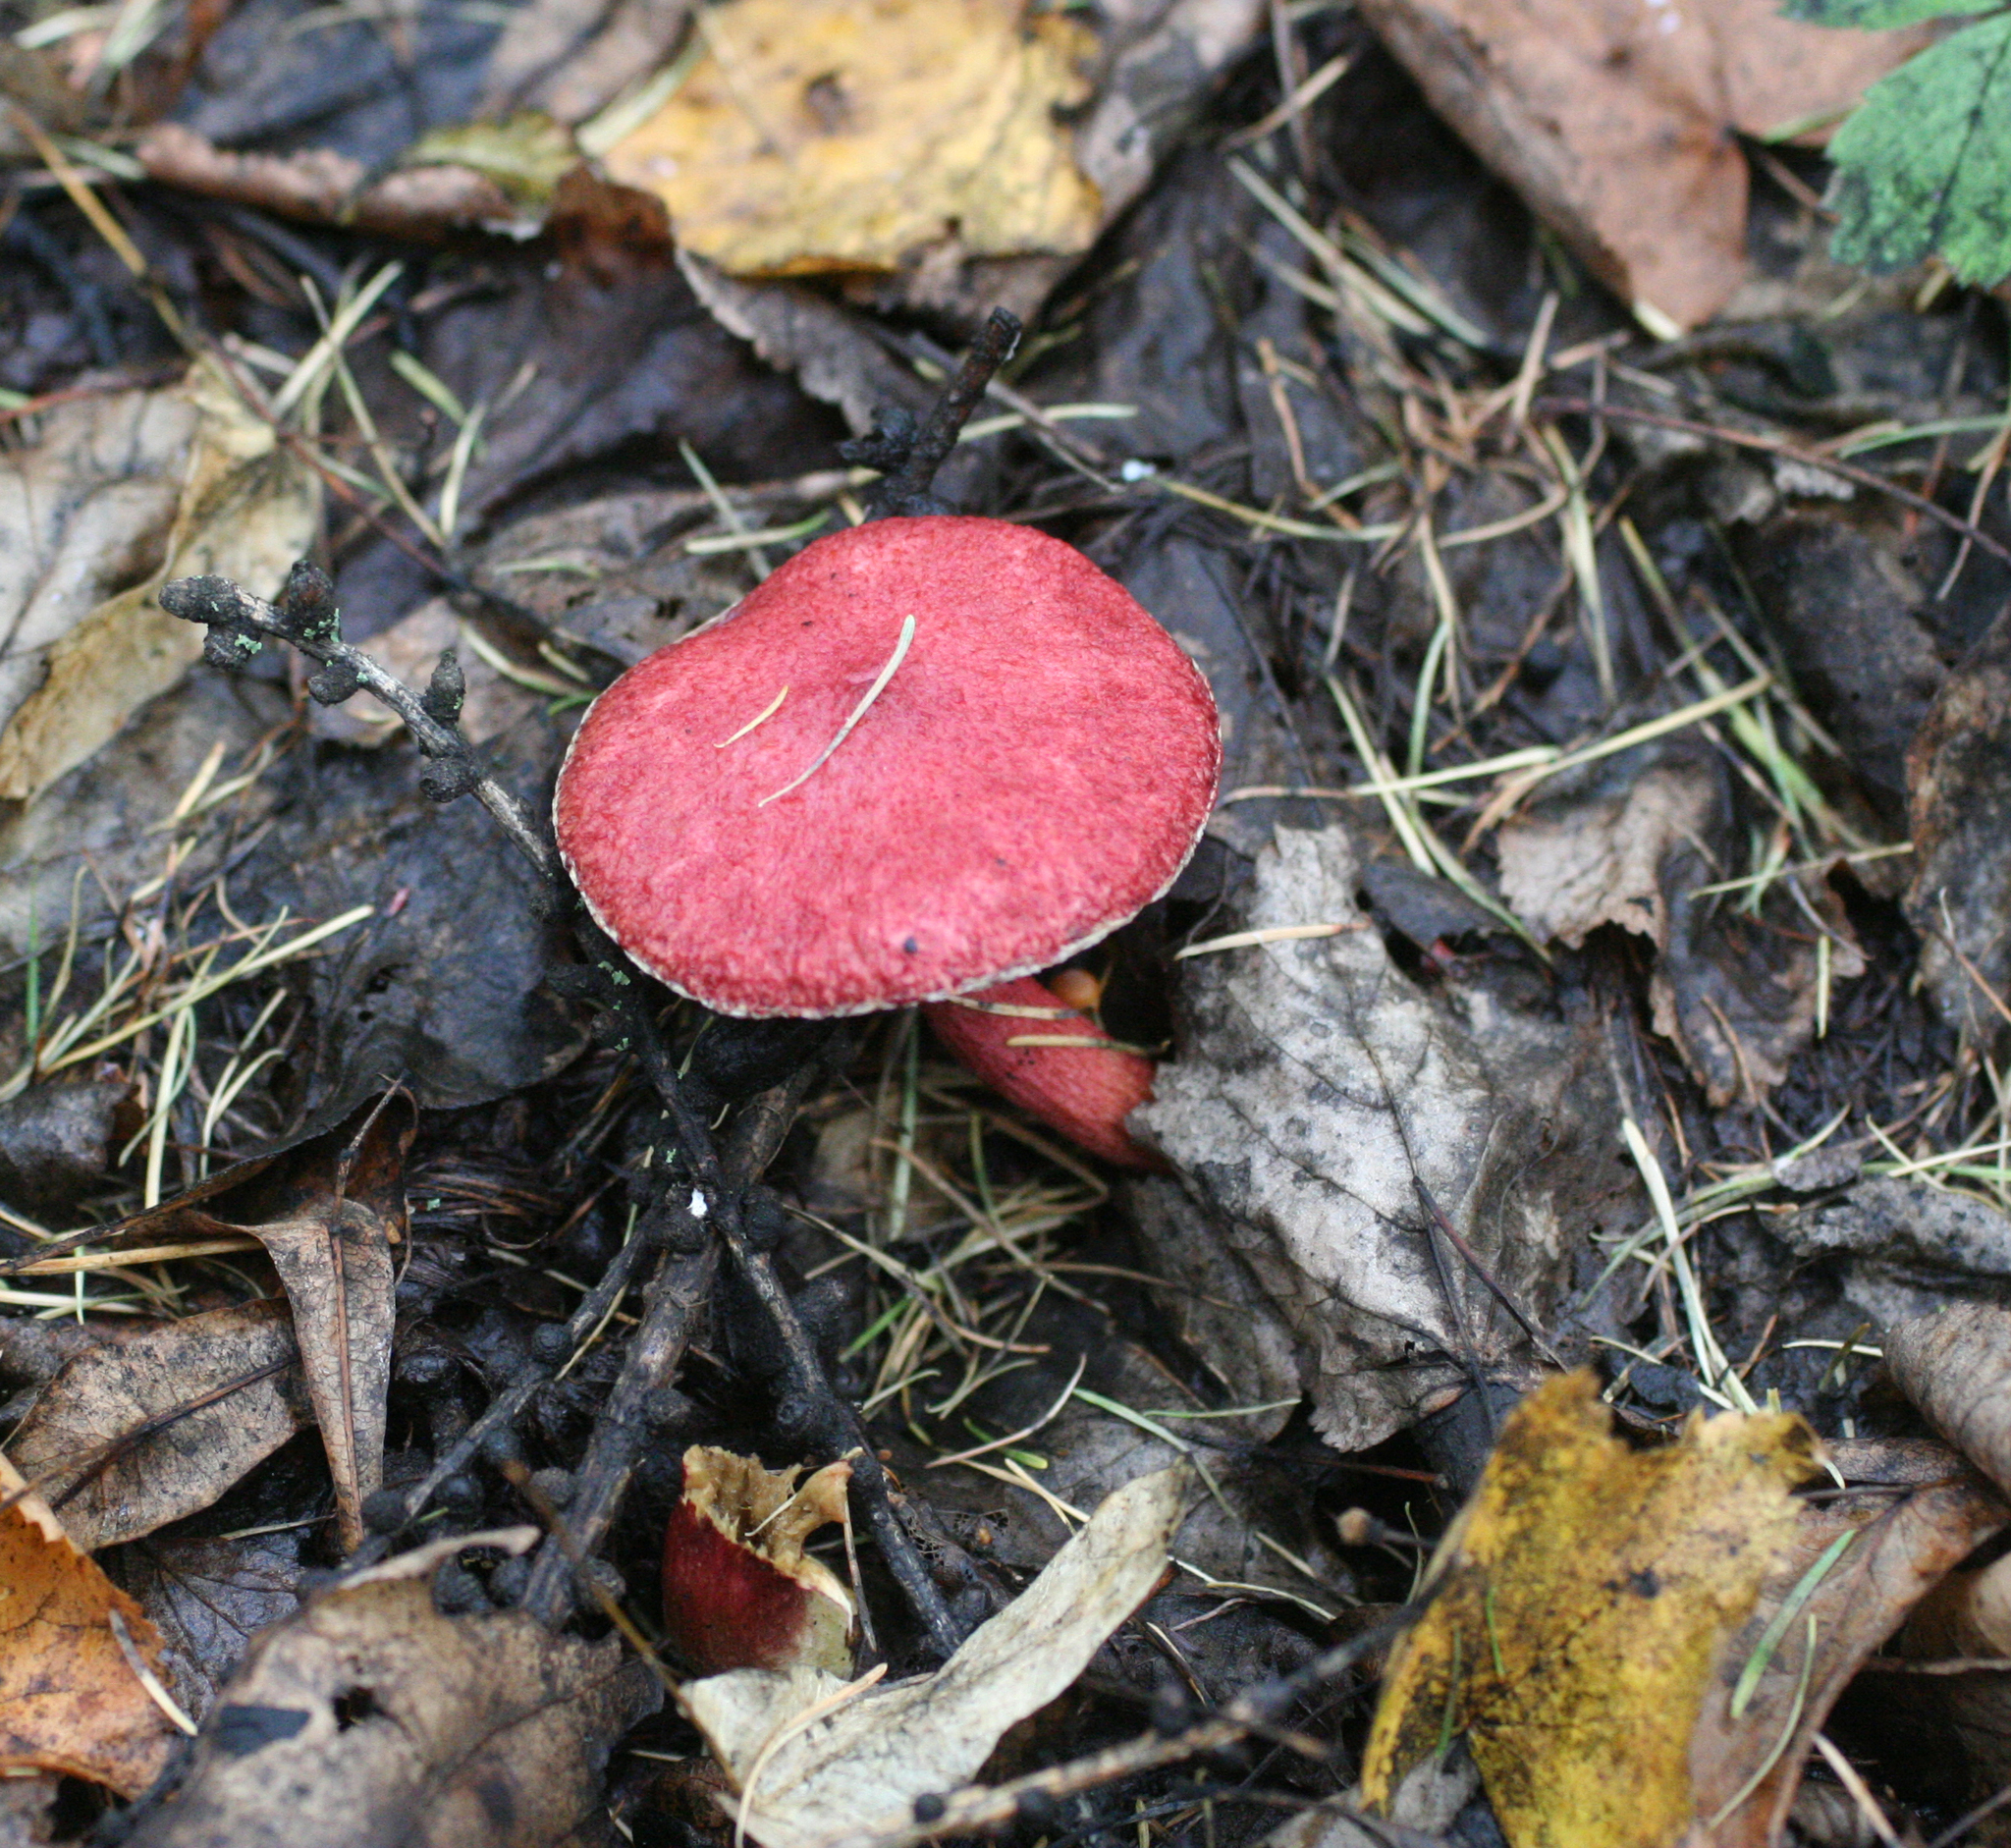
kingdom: Fungi
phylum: Basidiomycota
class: Agaricomycetes
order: Boletales
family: Suillaceae
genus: Boletinus
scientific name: Boletinus asiaticus
